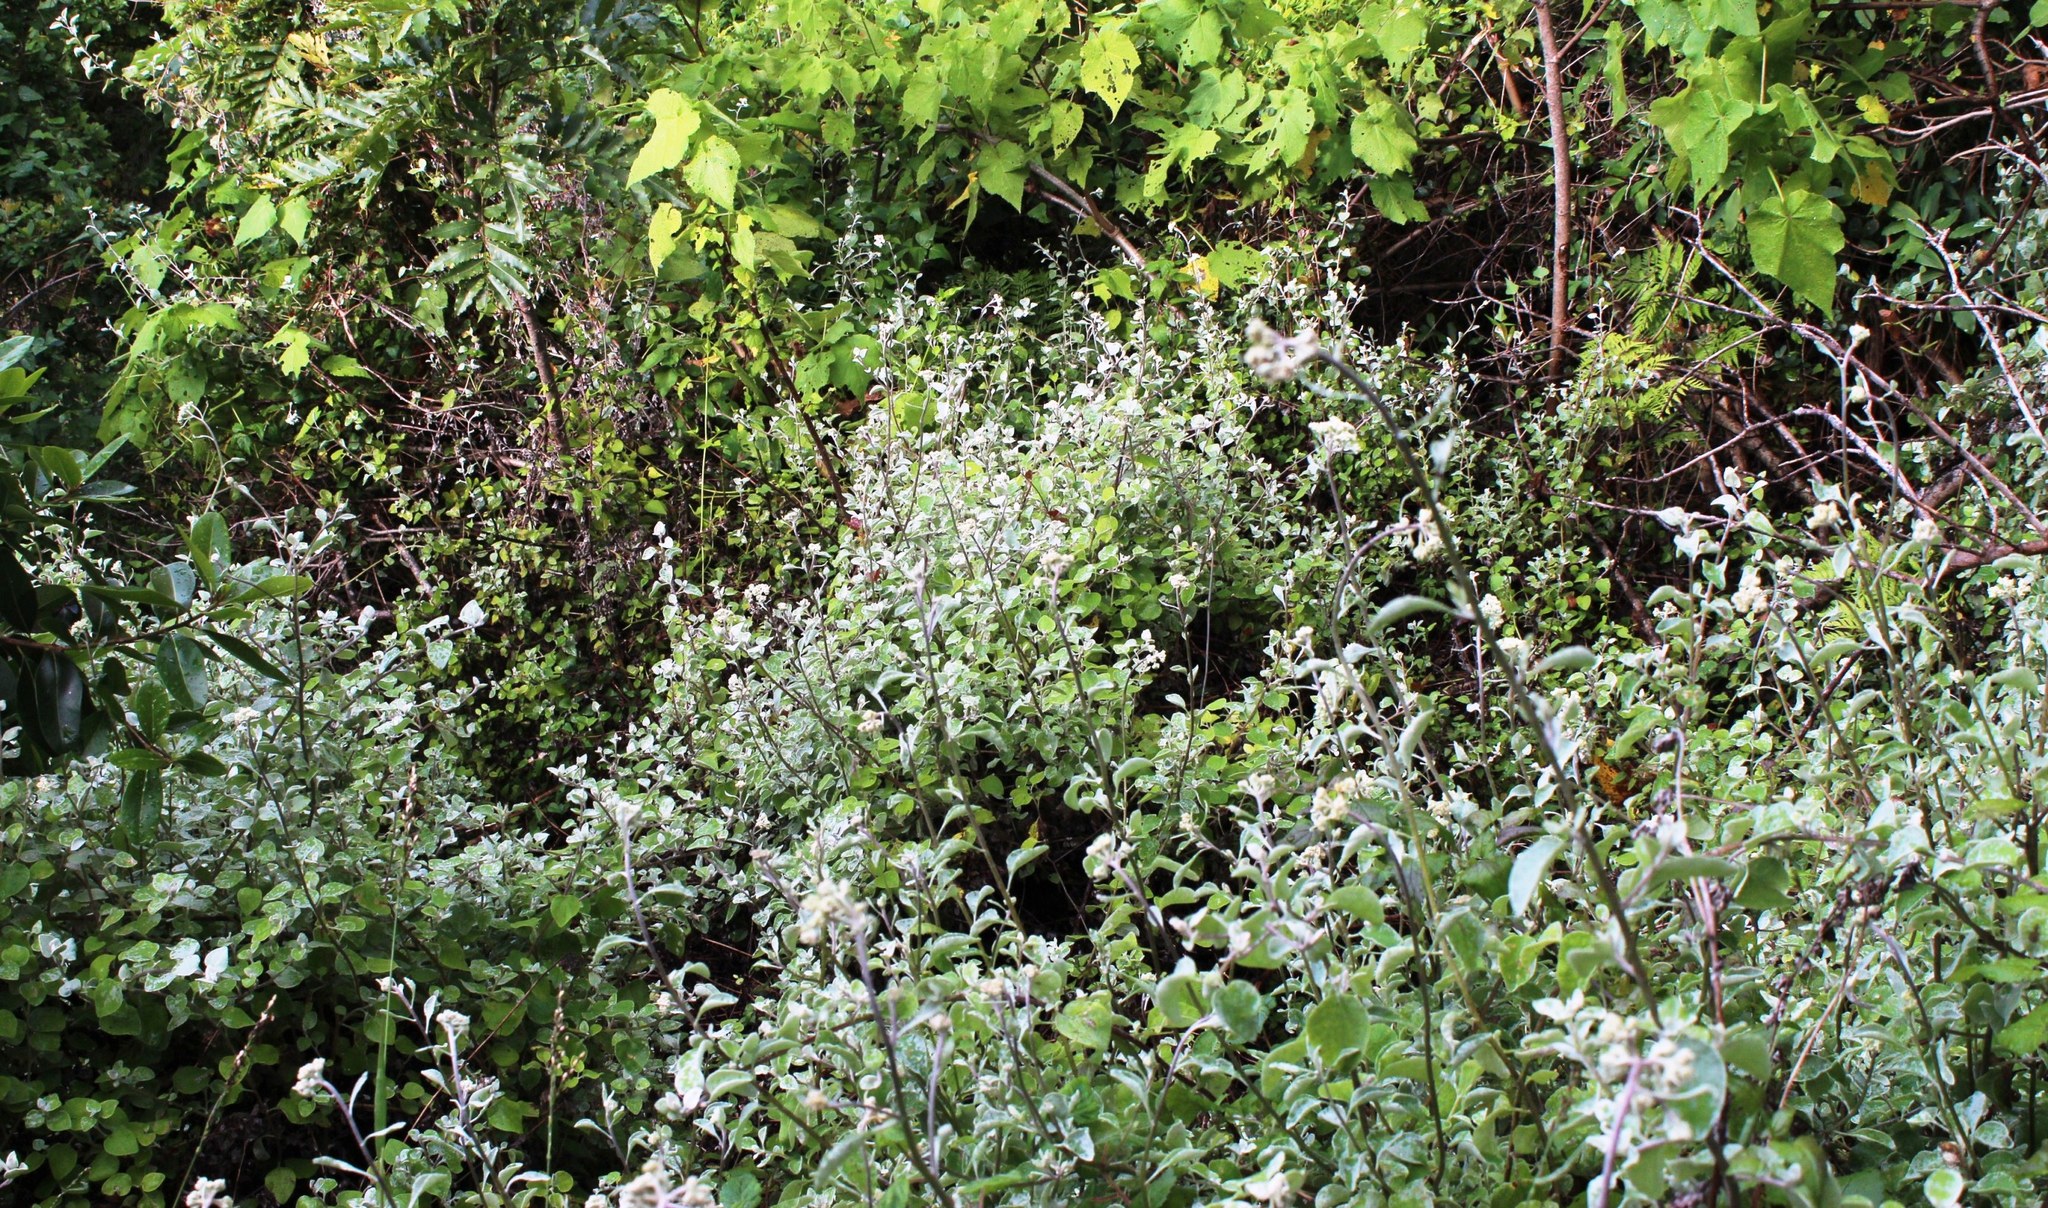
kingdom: Plantae
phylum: Tracheophyta
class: Magnoliopsida
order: Asterales
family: Asteraceae
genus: Helichrysum
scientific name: Helichrysum petiolare
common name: Licorice-plant
